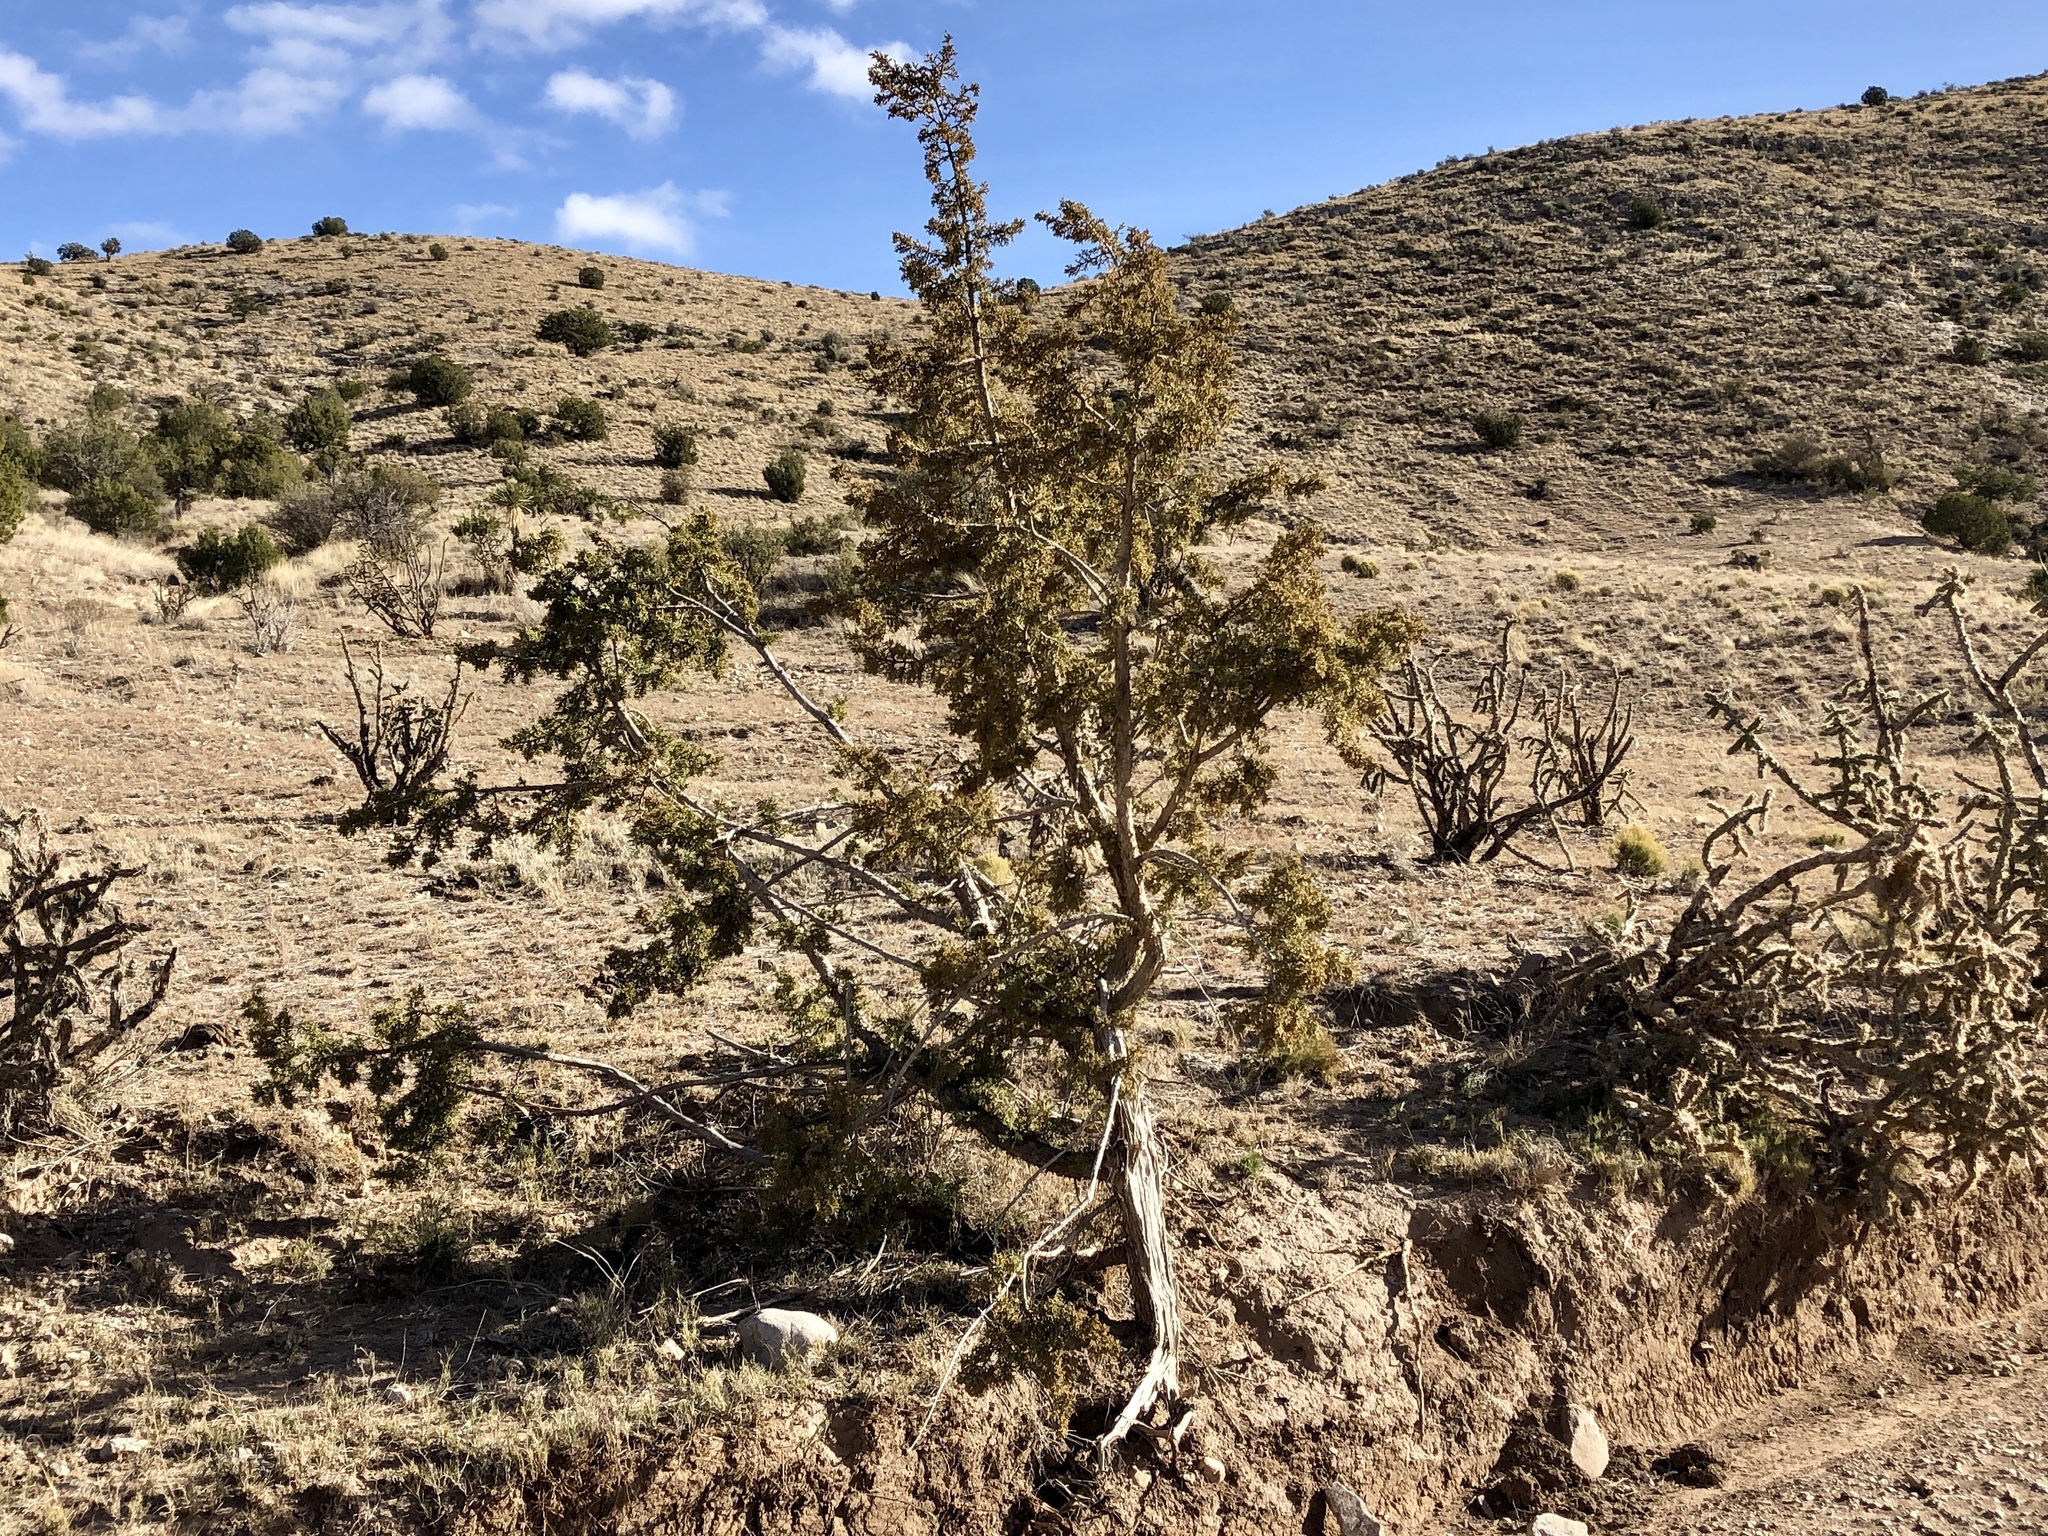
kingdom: Plantae
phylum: Tracheophyta
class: Pinopsida
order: Pinales
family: Cupressaceae
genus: Juniperus
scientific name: Juniperus monosperma
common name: One-seed juniper
